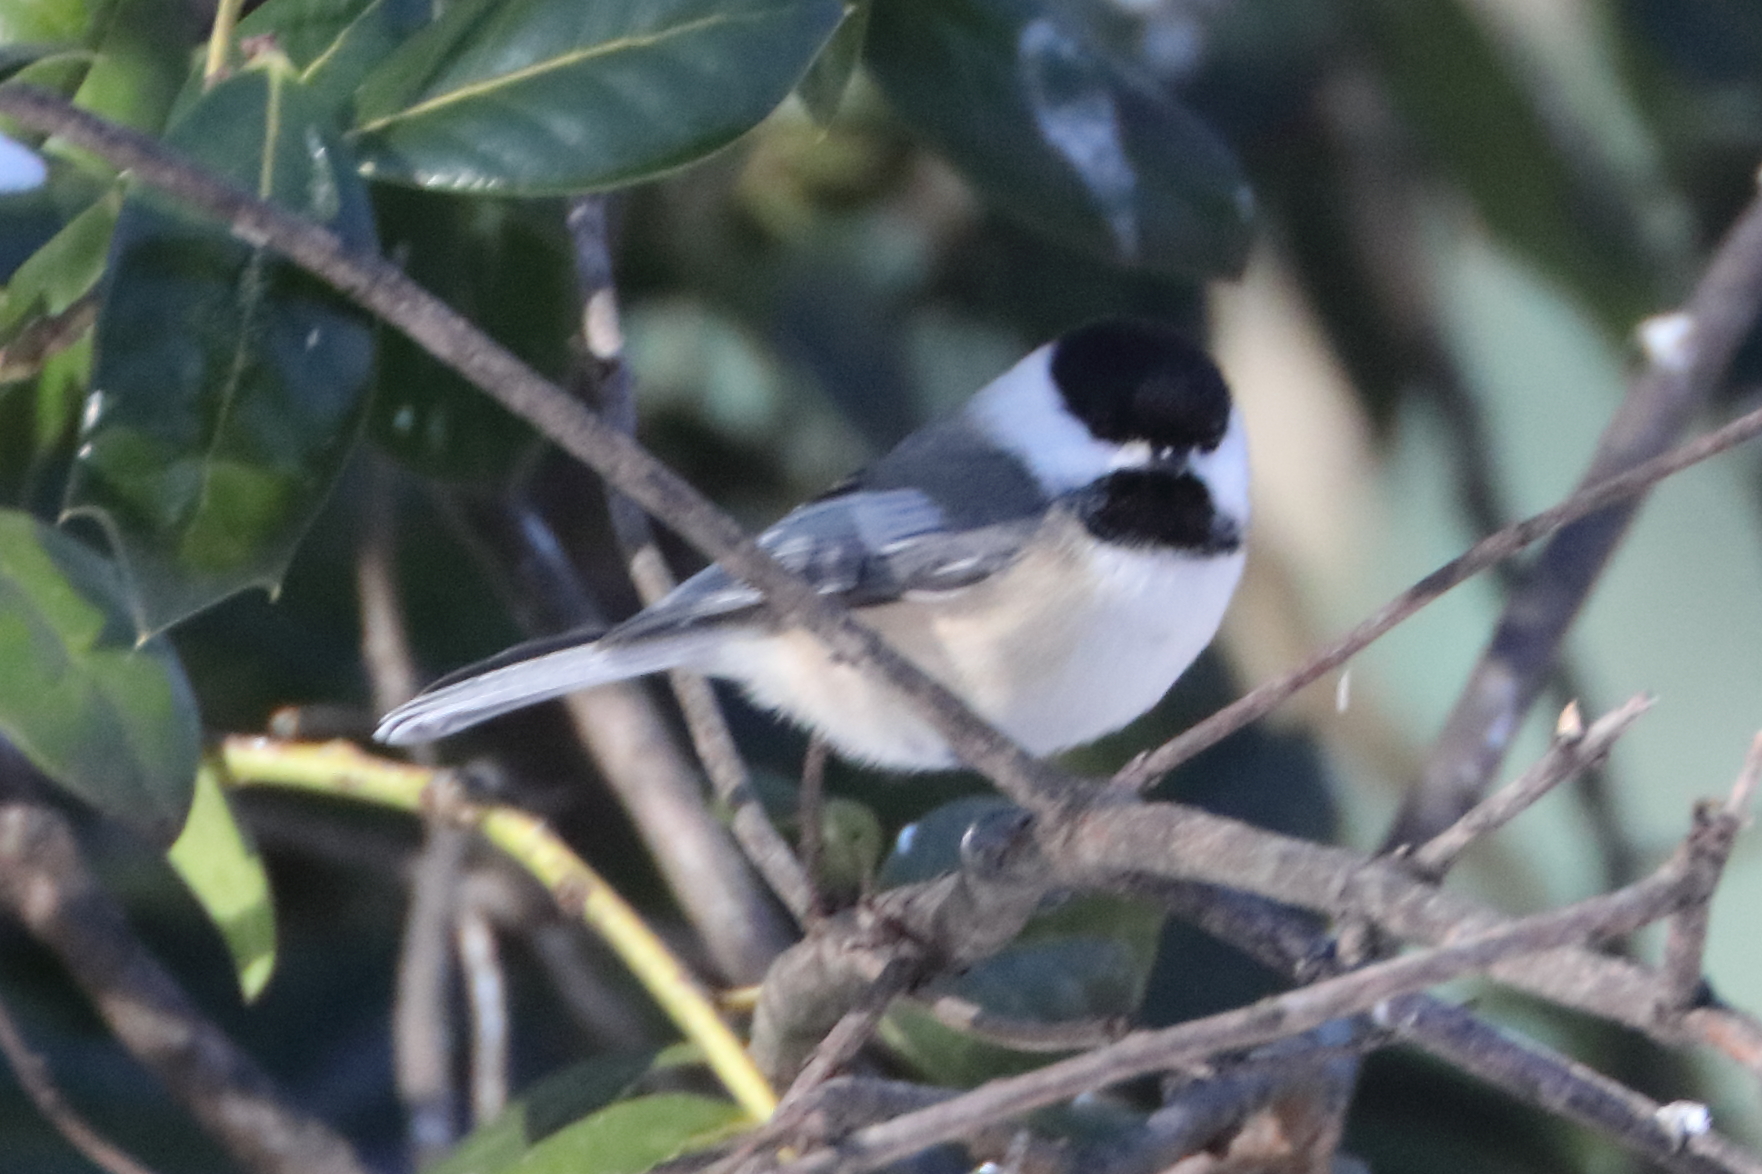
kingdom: Animalia
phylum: Chordata
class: Aves
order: Passeriformes
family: Paridae
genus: Poecile
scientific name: Poecile atricapillus
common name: Black-capped chickadee
